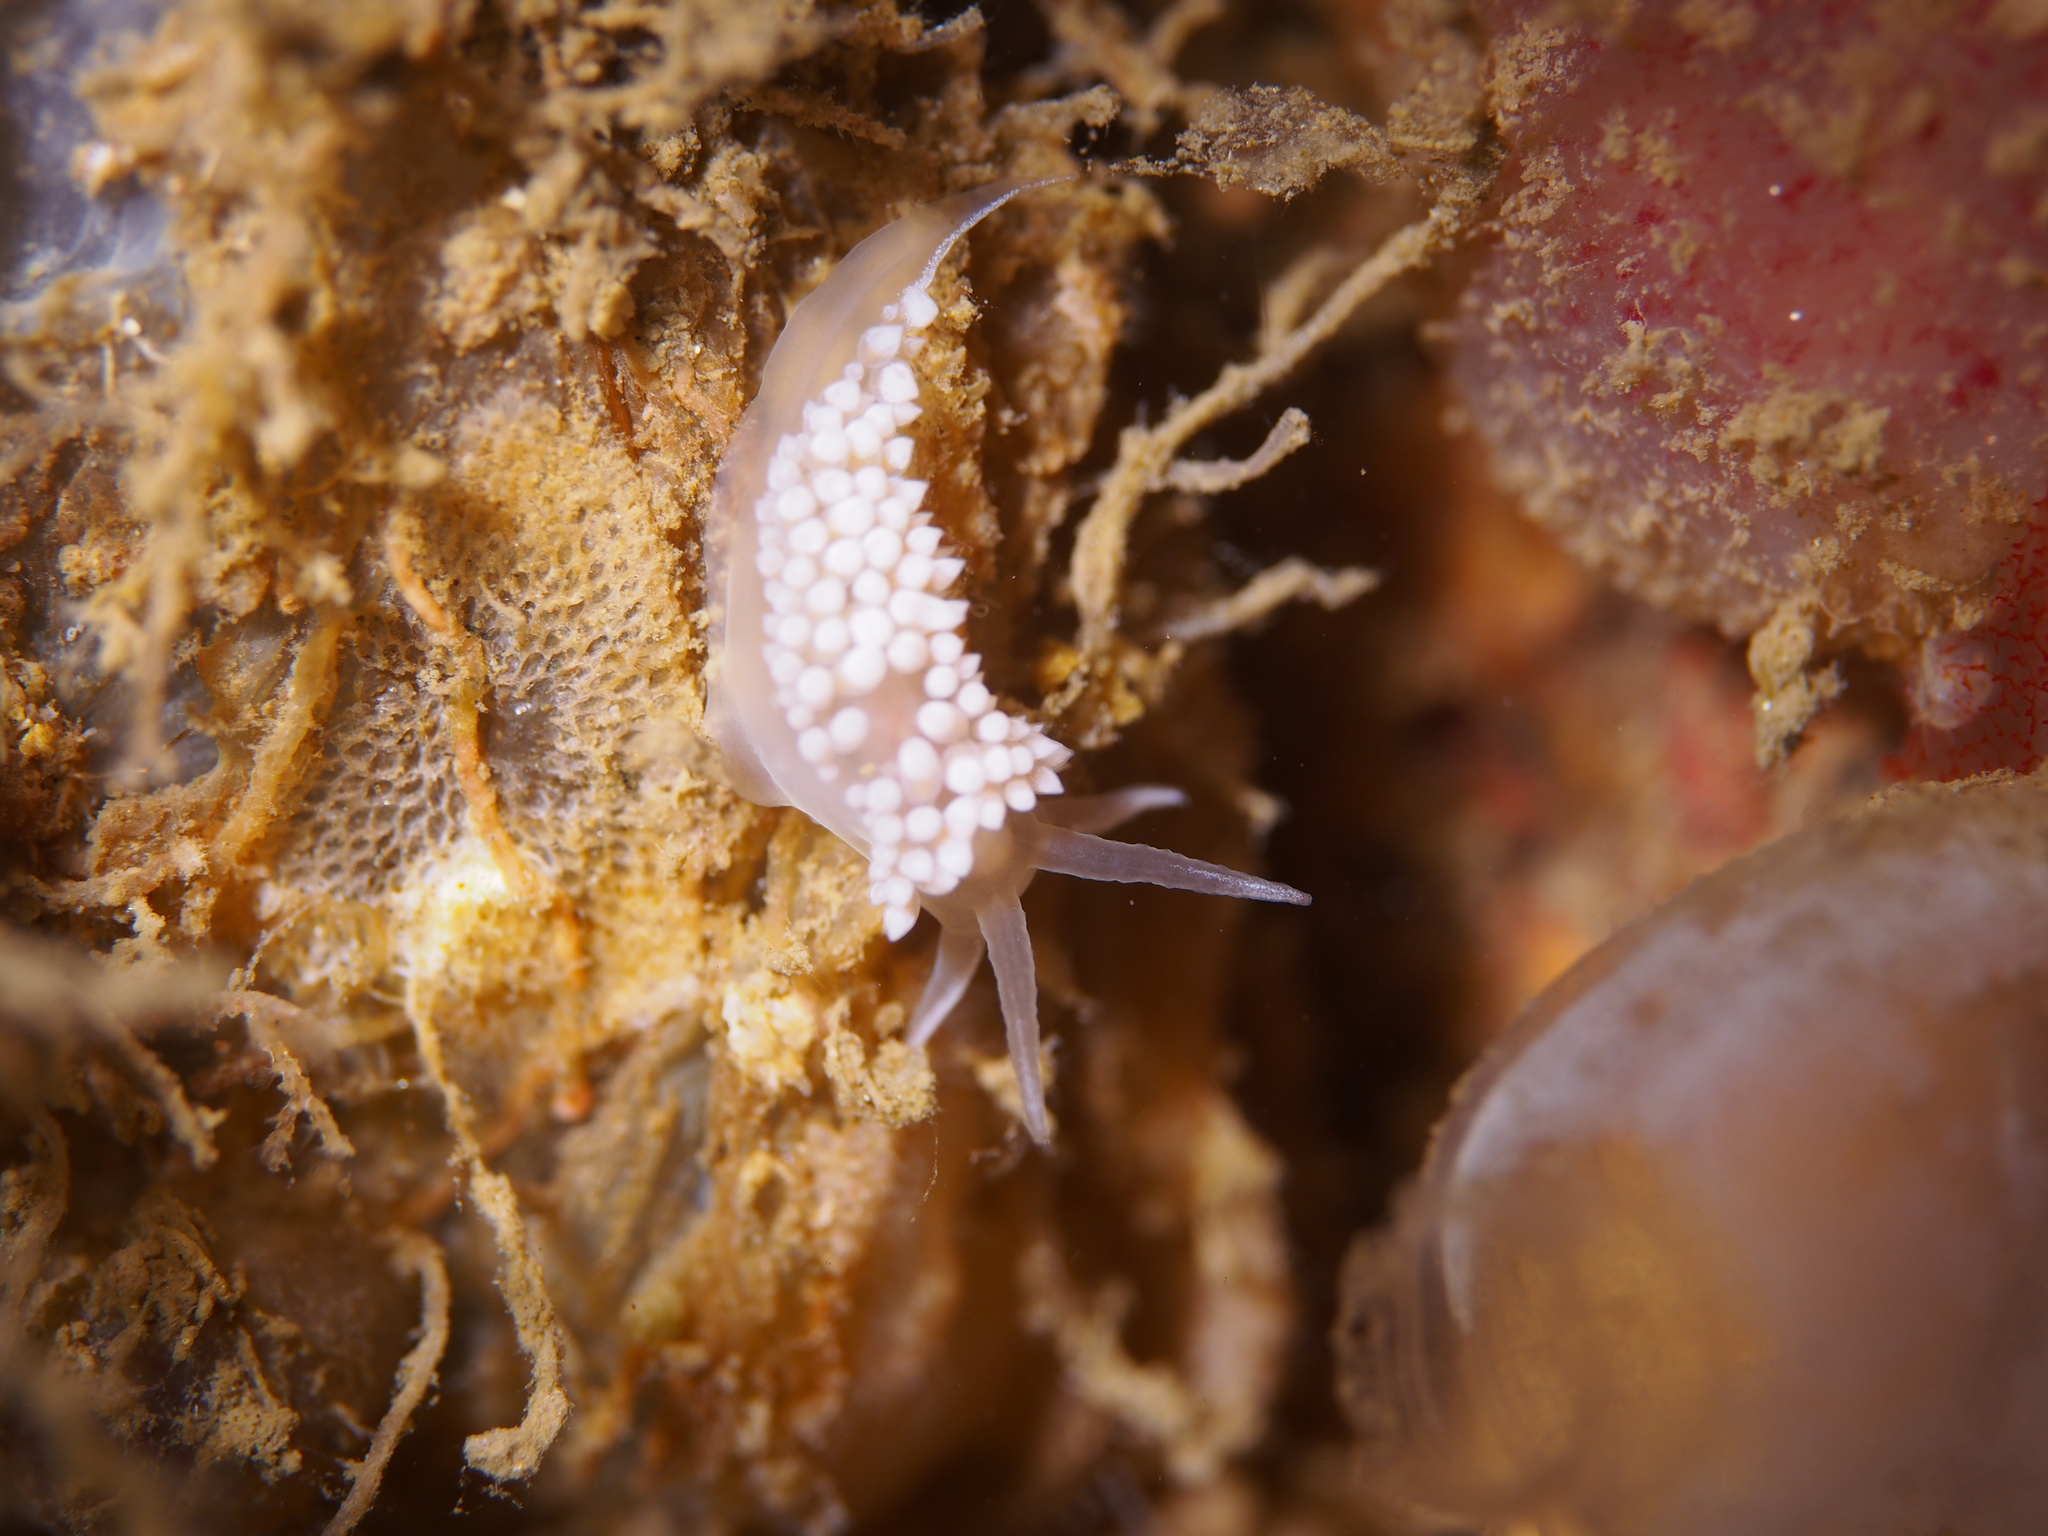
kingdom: Animalia
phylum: Mollusca
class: Gastropoda
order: Nudibranchia
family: Coryphellidae
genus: Coryphella
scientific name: Coryphella verrucosa
